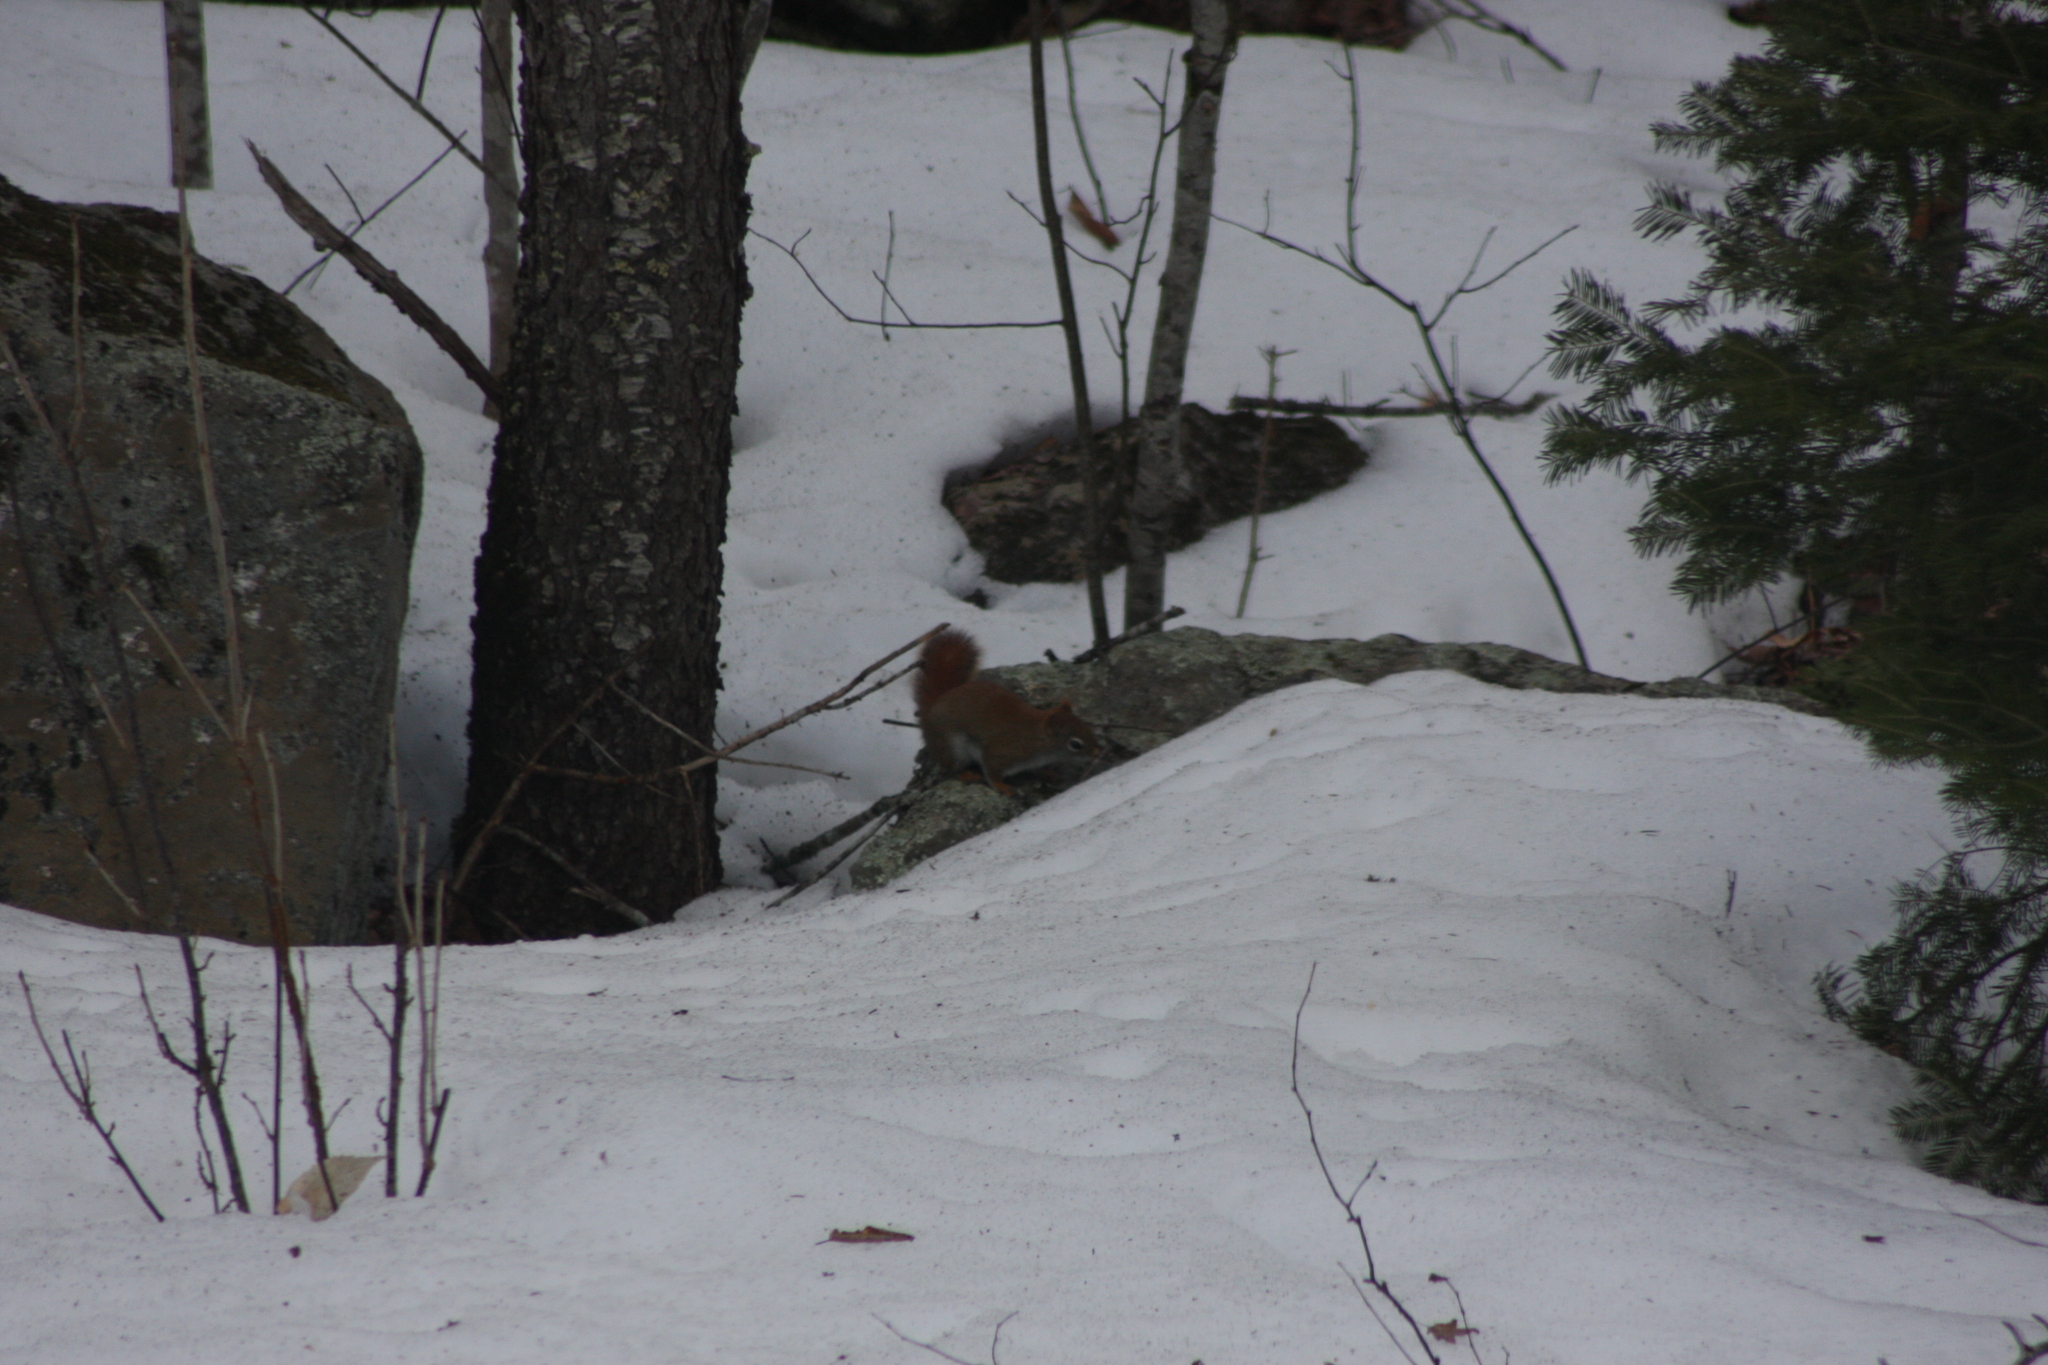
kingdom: Animalia
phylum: Chordata
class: Mammalia
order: Rodentia
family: Sciuridae
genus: Tamiasciurus
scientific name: Tamiasciurus hudsonicus
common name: Red squirrel
